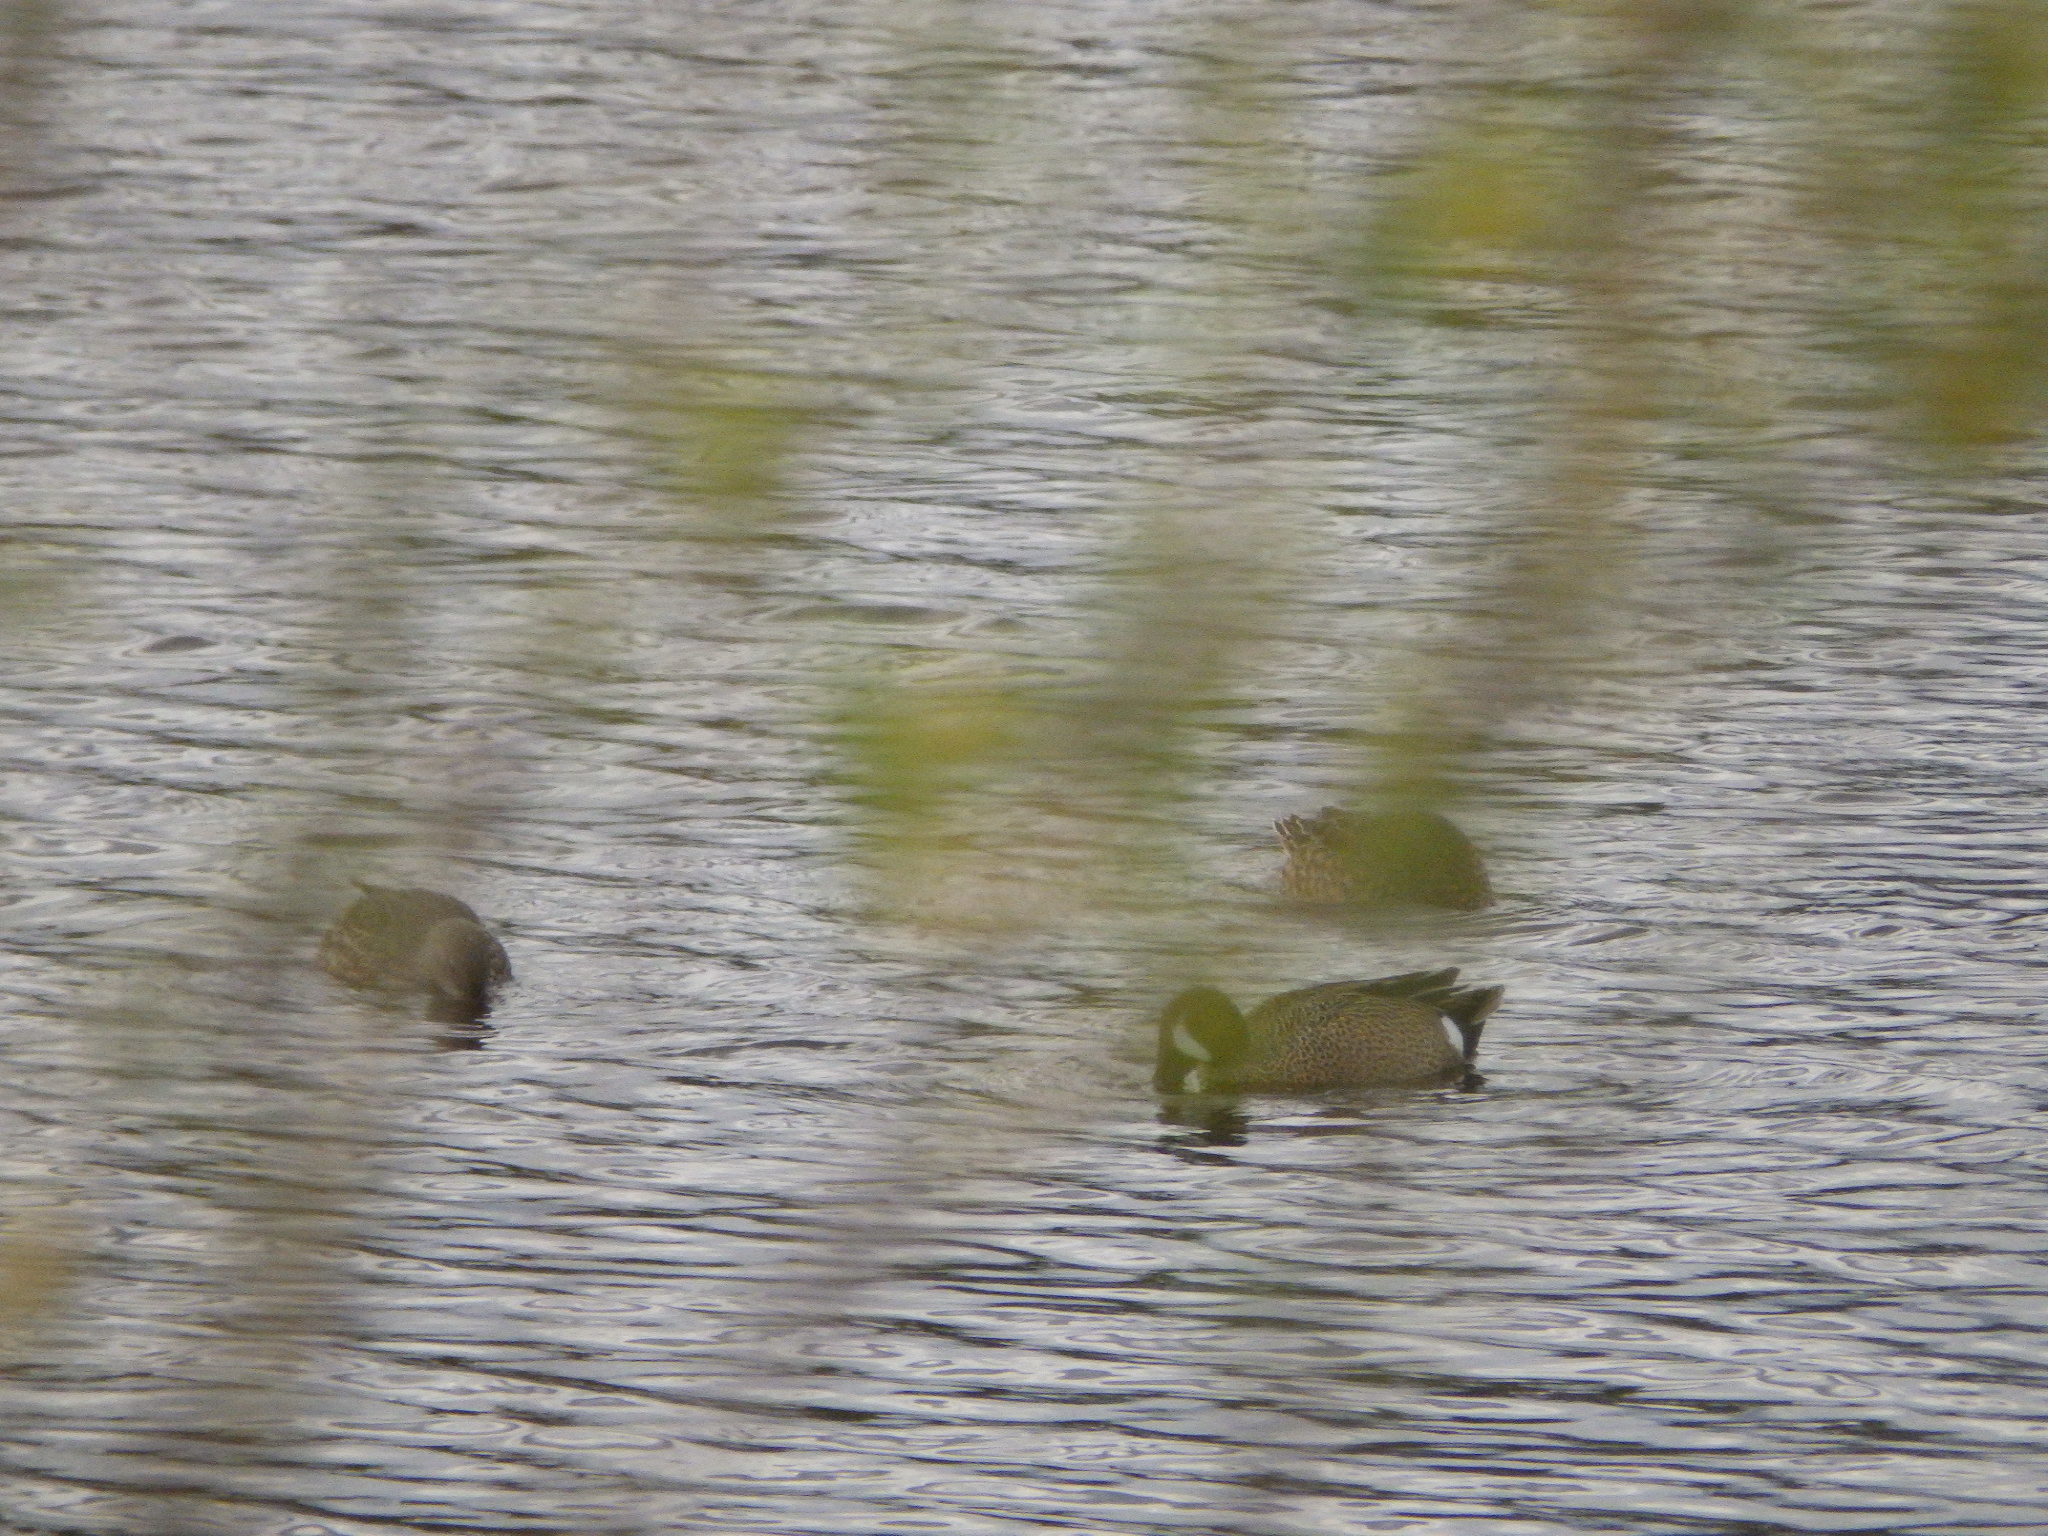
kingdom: Animalia
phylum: Chordata
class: Aves
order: Anseriformes
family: Anatidae
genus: Spatula
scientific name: Spatula discors
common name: Blue-winged teal
